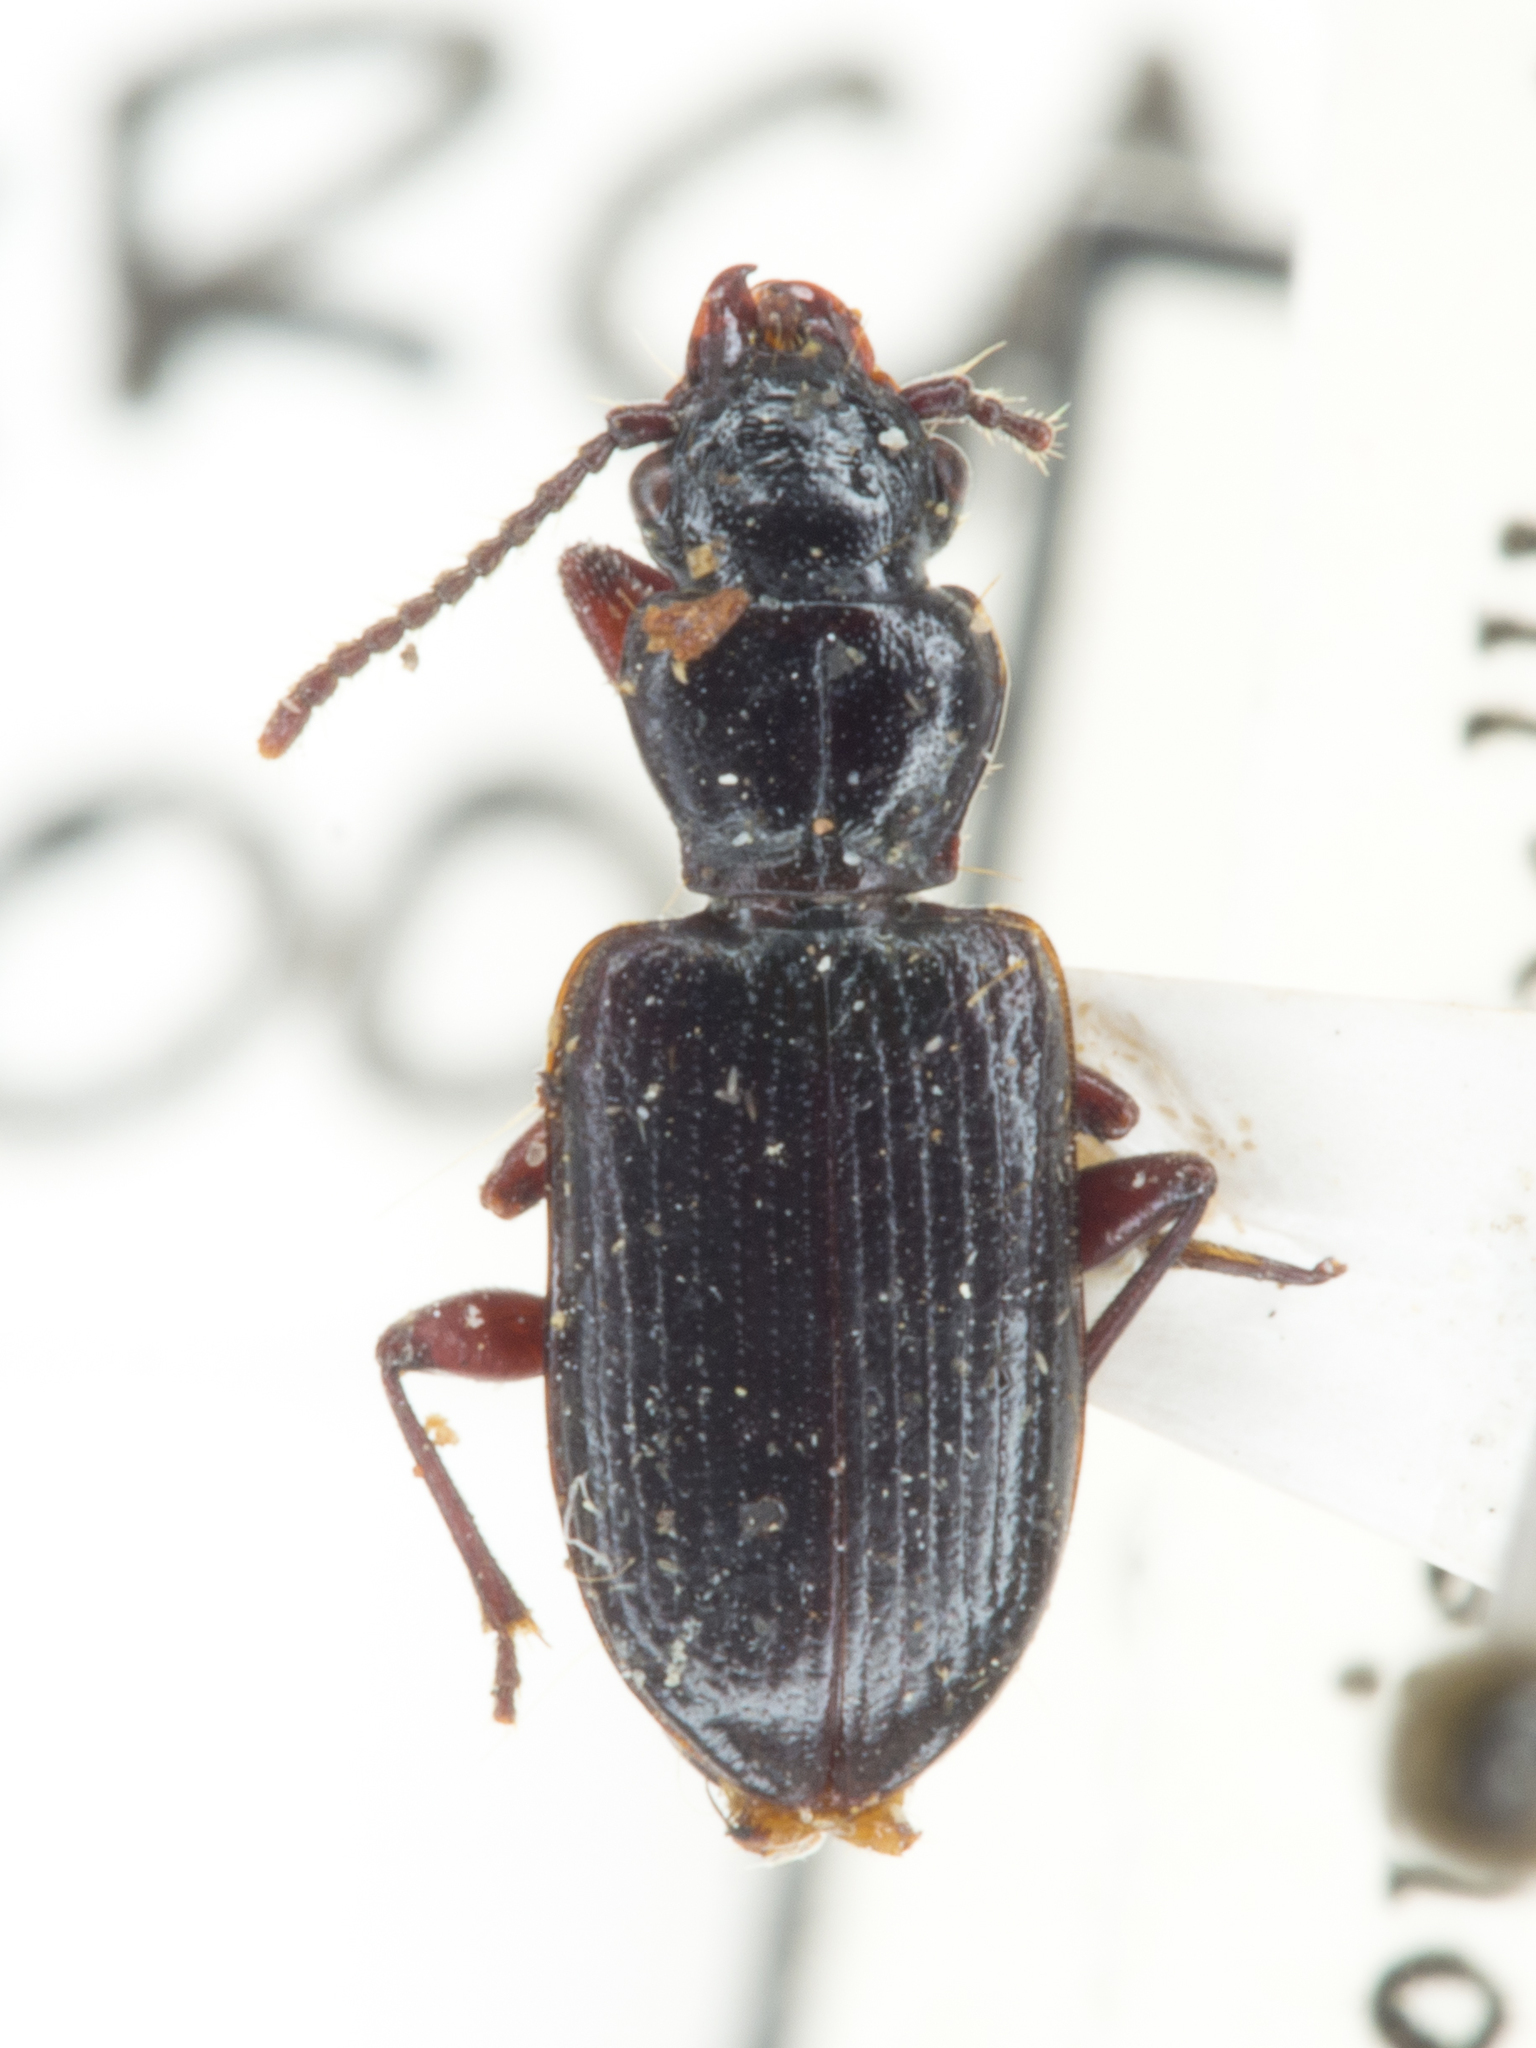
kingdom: Animalia
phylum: Arthropoda
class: Insecta
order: Coleoptera
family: Carabidae
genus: Psydrus
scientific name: Psydrus piceus
